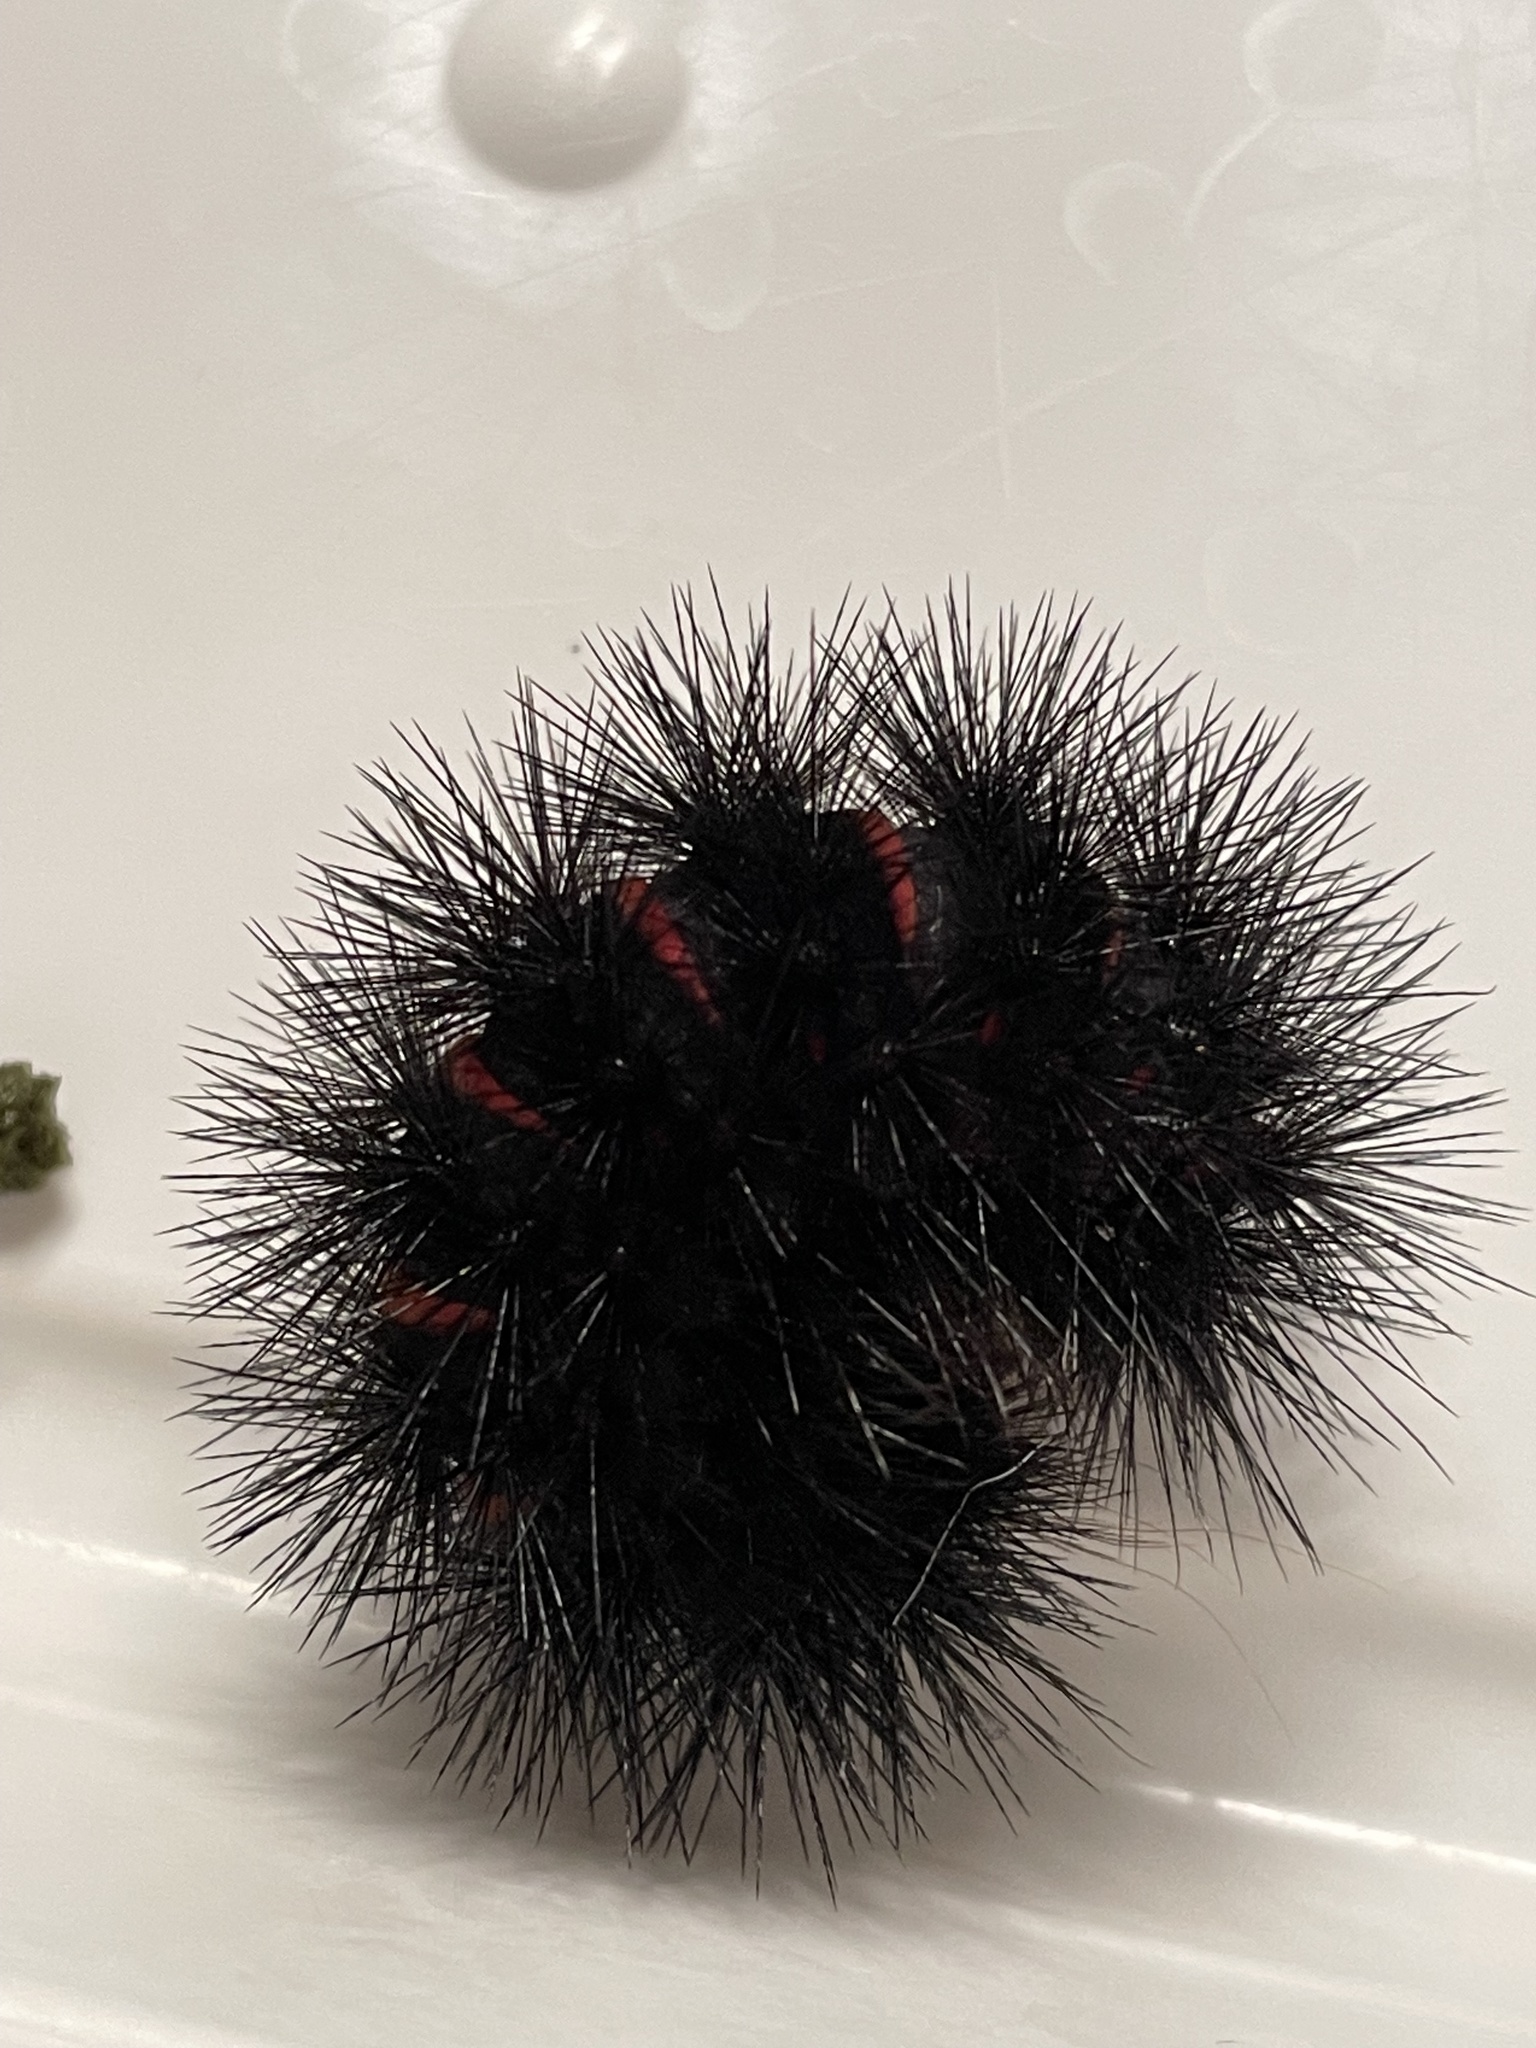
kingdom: Animalia
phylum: Arthropoda
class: Insecta
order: Lepidoptera
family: Erebidae
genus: Hypercompe
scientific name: Hypercompe scribonia
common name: Giant leopard moth
